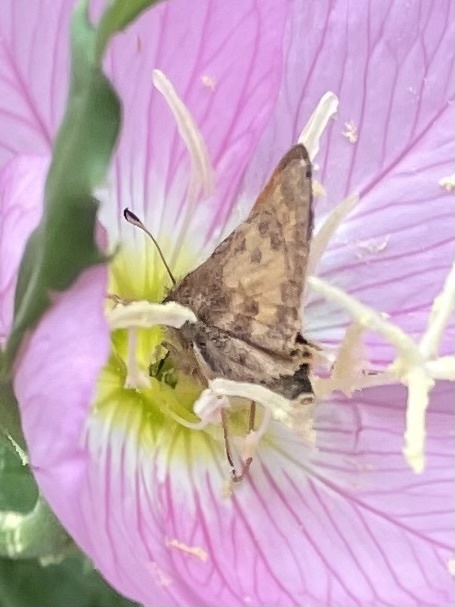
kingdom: Animalia
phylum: Arthropoda
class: Insecta
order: Lepidoptera
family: Hesperiidae
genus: Atalopedes
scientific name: Atalopedes
